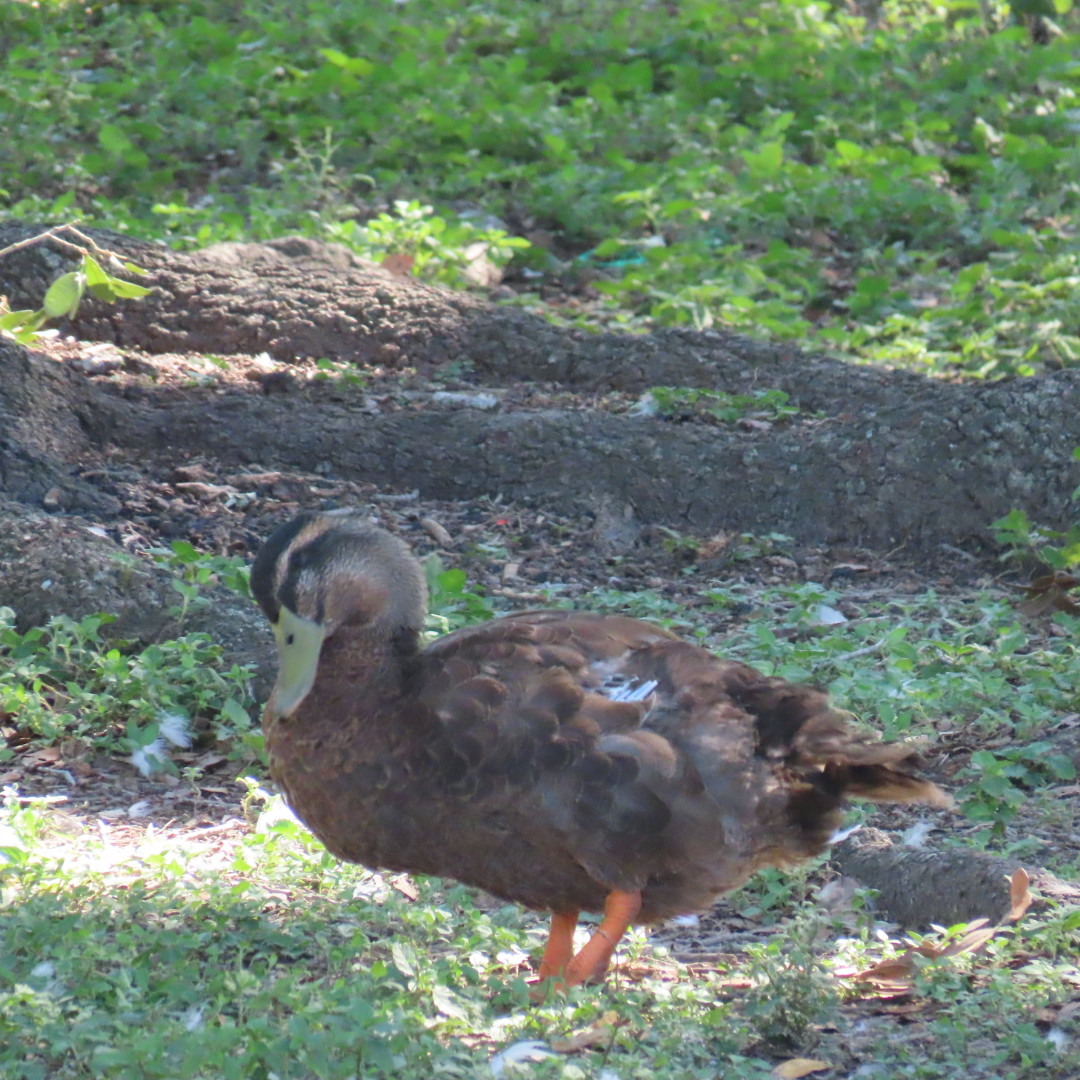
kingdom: Animalia
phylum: Chordata
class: Aves
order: Anseriformes
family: Anatidae
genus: Anas
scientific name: Anas platyrhynchos
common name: Mallard
